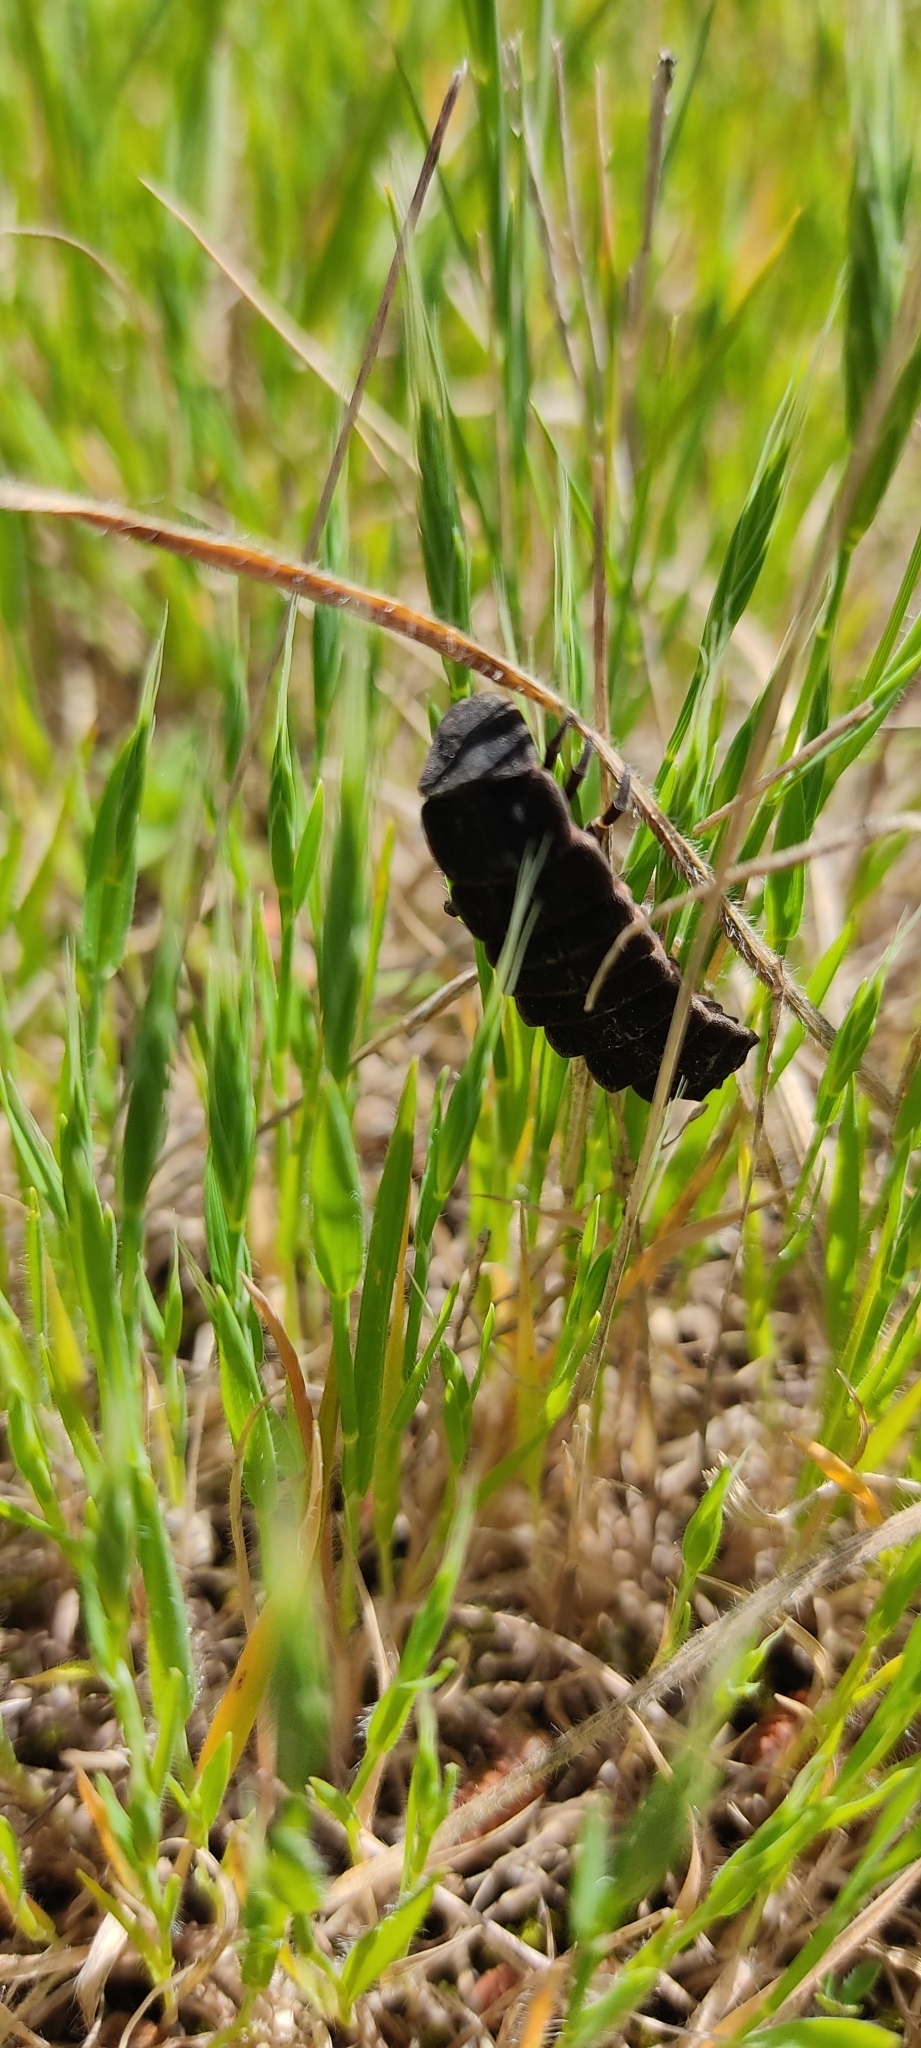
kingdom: Animalia
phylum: Arthropoda
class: Insecta
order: Coleoptera
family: Lampyridae
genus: Nyctophila
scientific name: Nyctophila reichii
